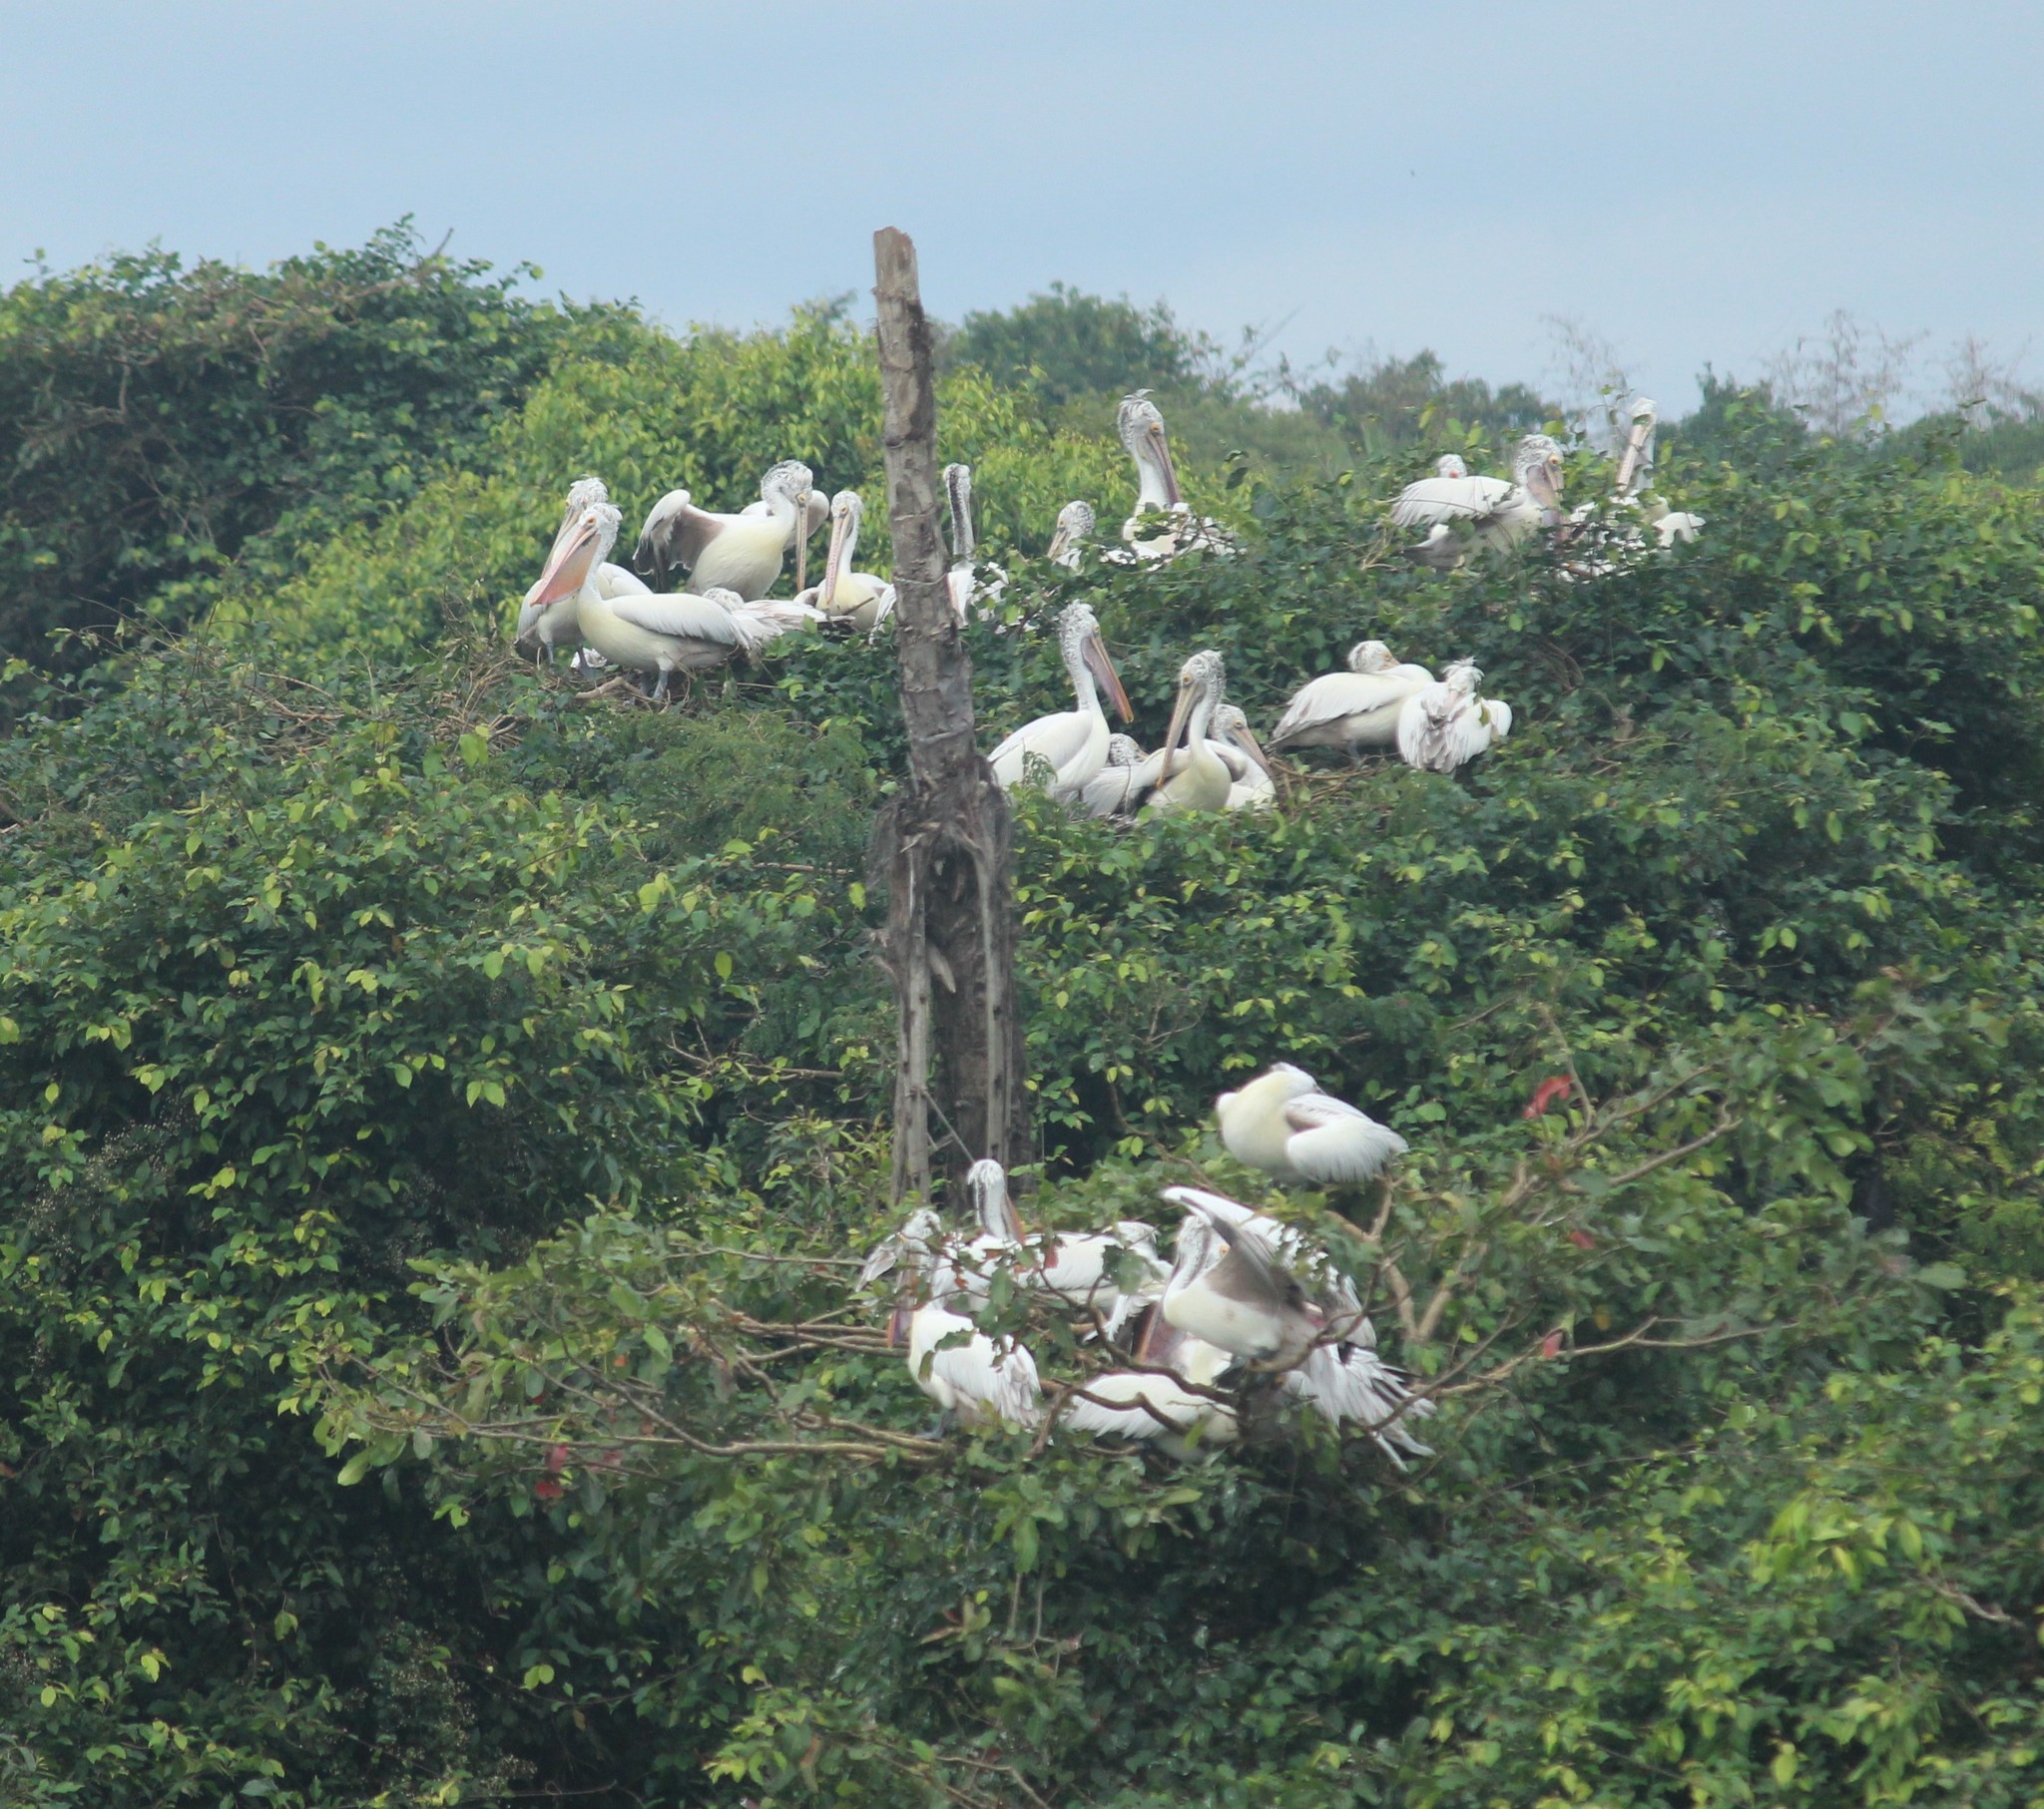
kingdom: Animalia
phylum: Chordata
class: Aves
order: Pelecaniformes
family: Pelecanidae
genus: Pelecanus
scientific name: Pelecanus philippensis
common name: Spot-billed pelican
